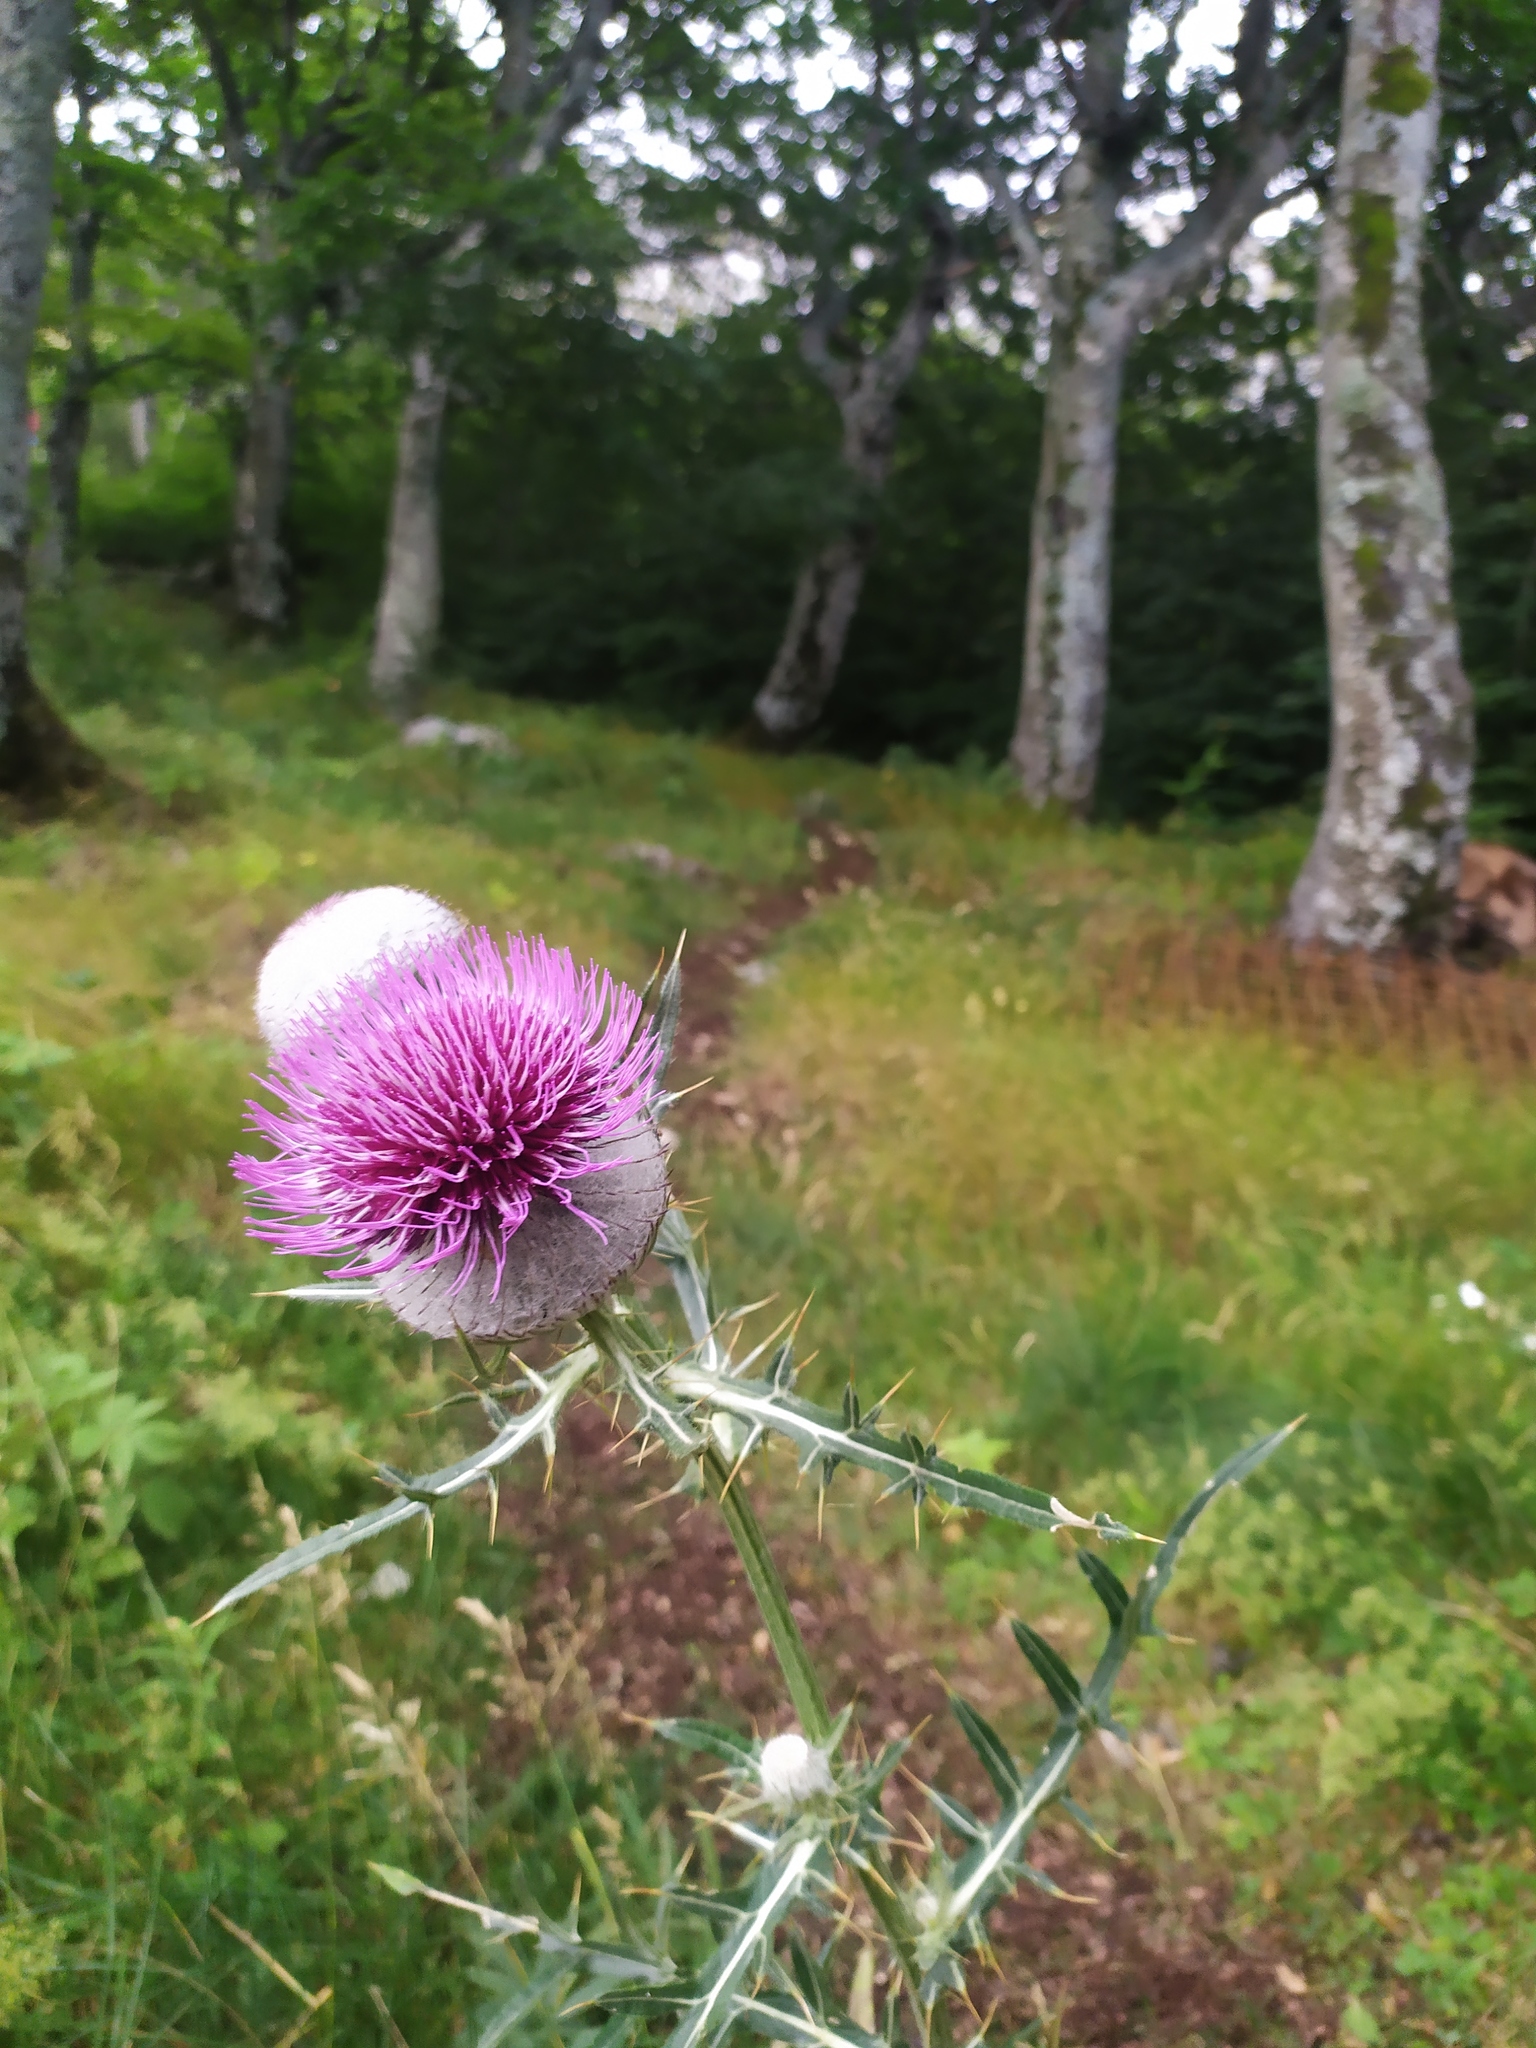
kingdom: Plantae
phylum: Tracheophyta
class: Magnoliopsida
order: Asterales
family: Asteraceae
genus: Lophiolepis
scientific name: Lophiolepis eriophora
